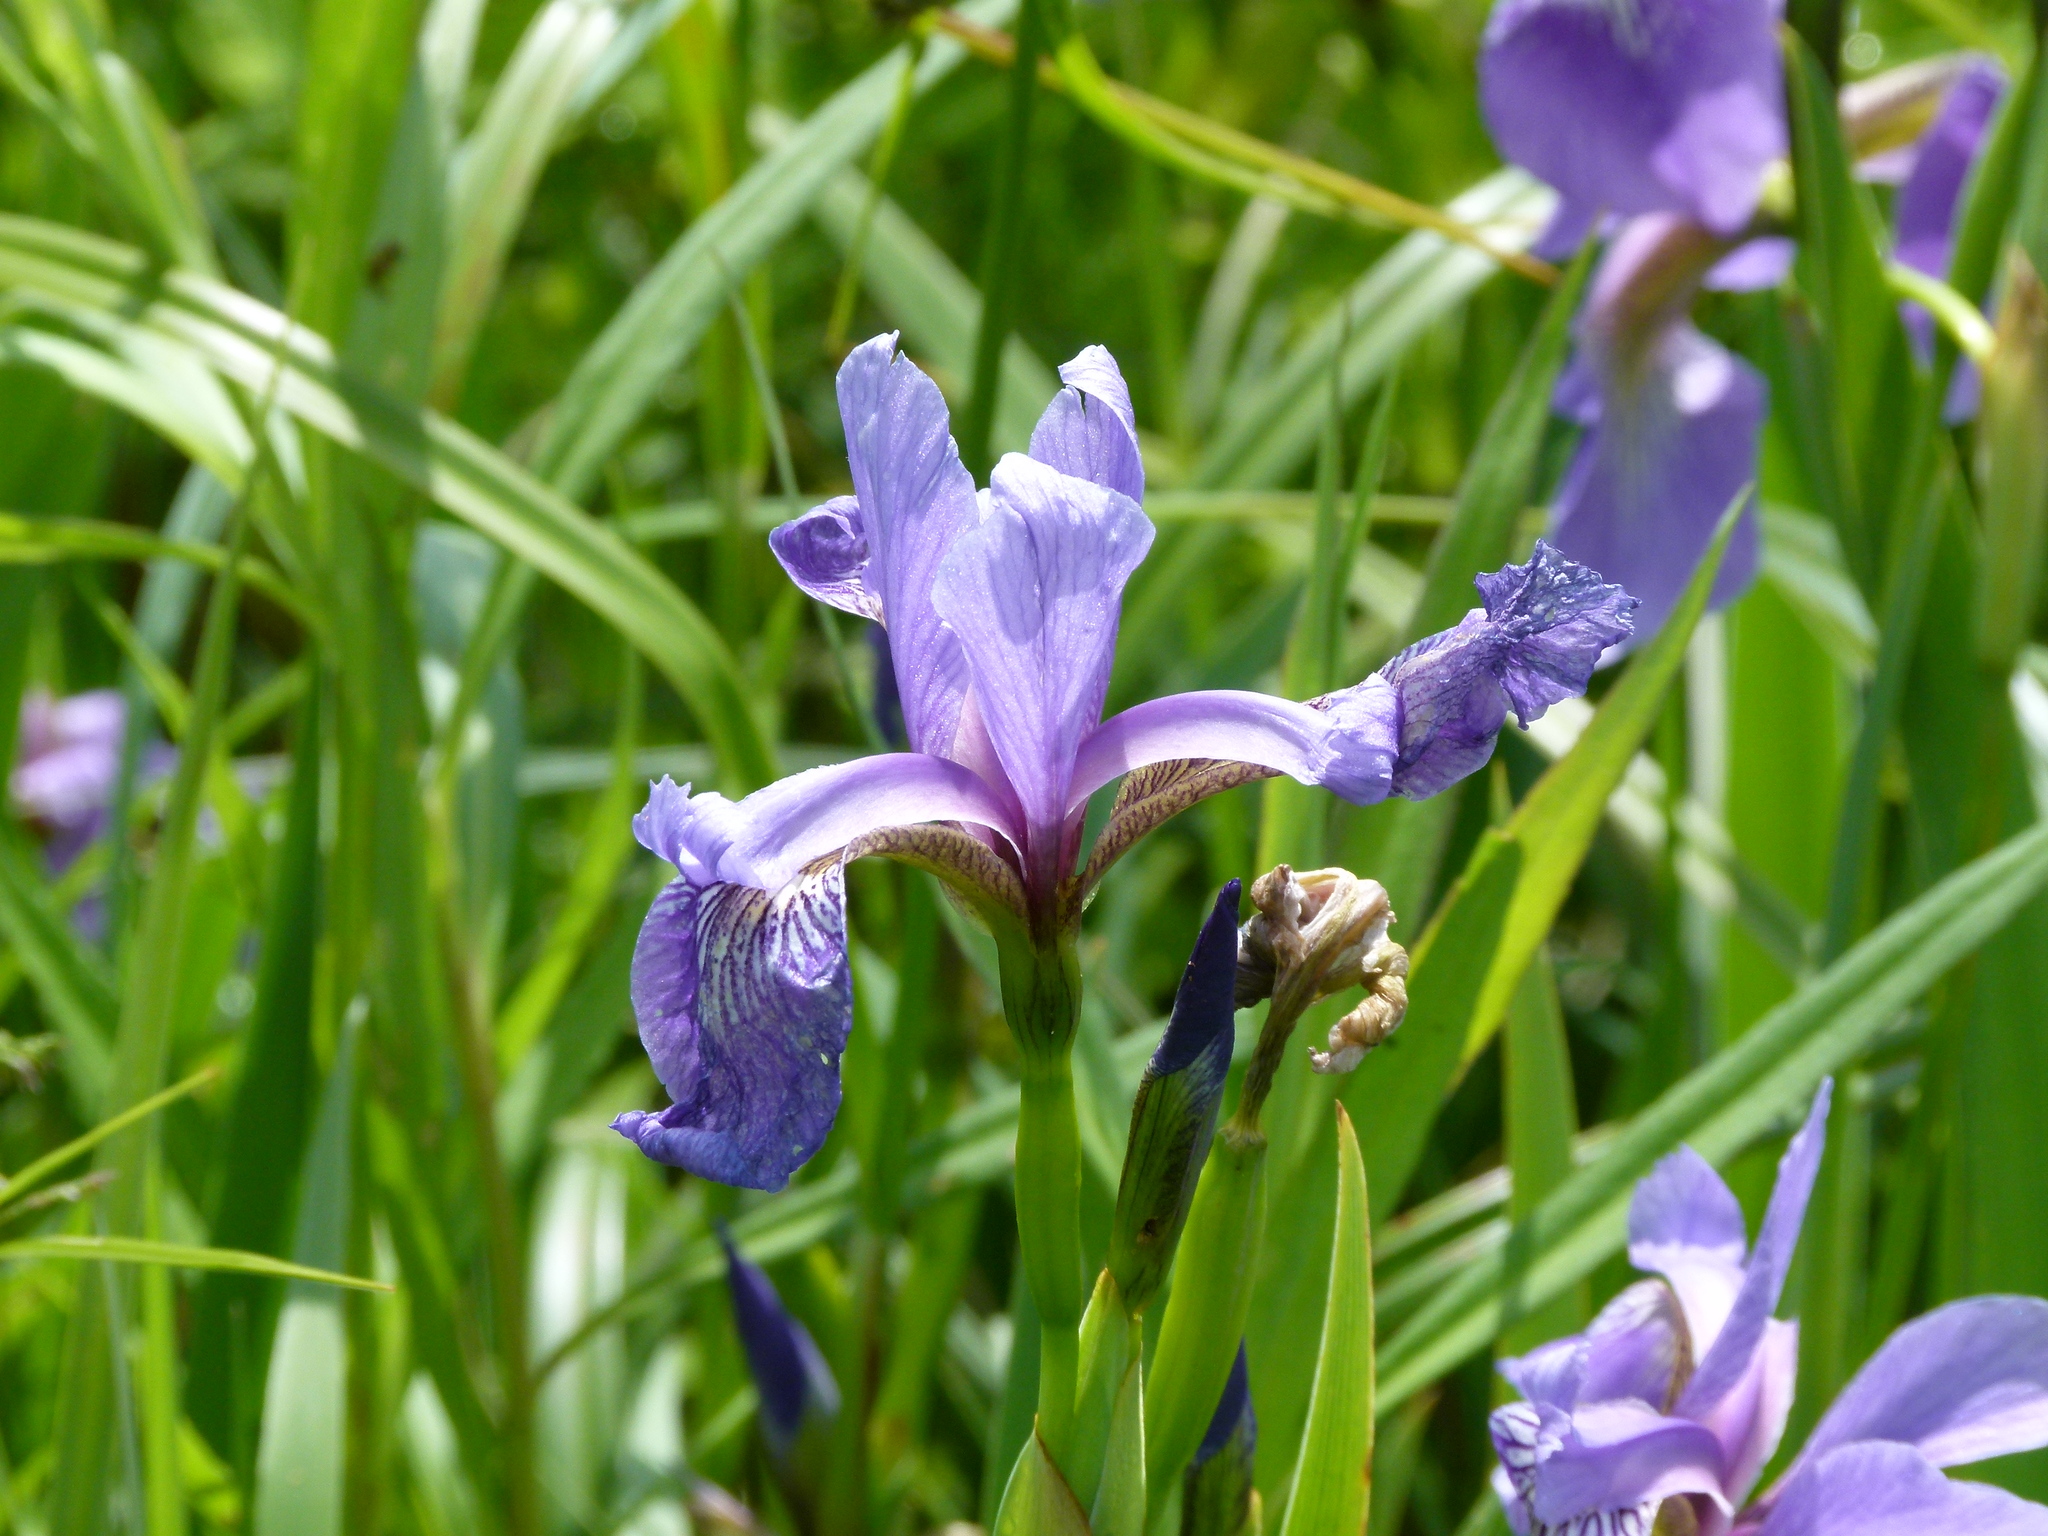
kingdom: Plantae
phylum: Tracheophyta
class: Liliopsida
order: Asparagales
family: Iridaceae
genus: Iris
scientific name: Iris versicolor
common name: Purple iris
